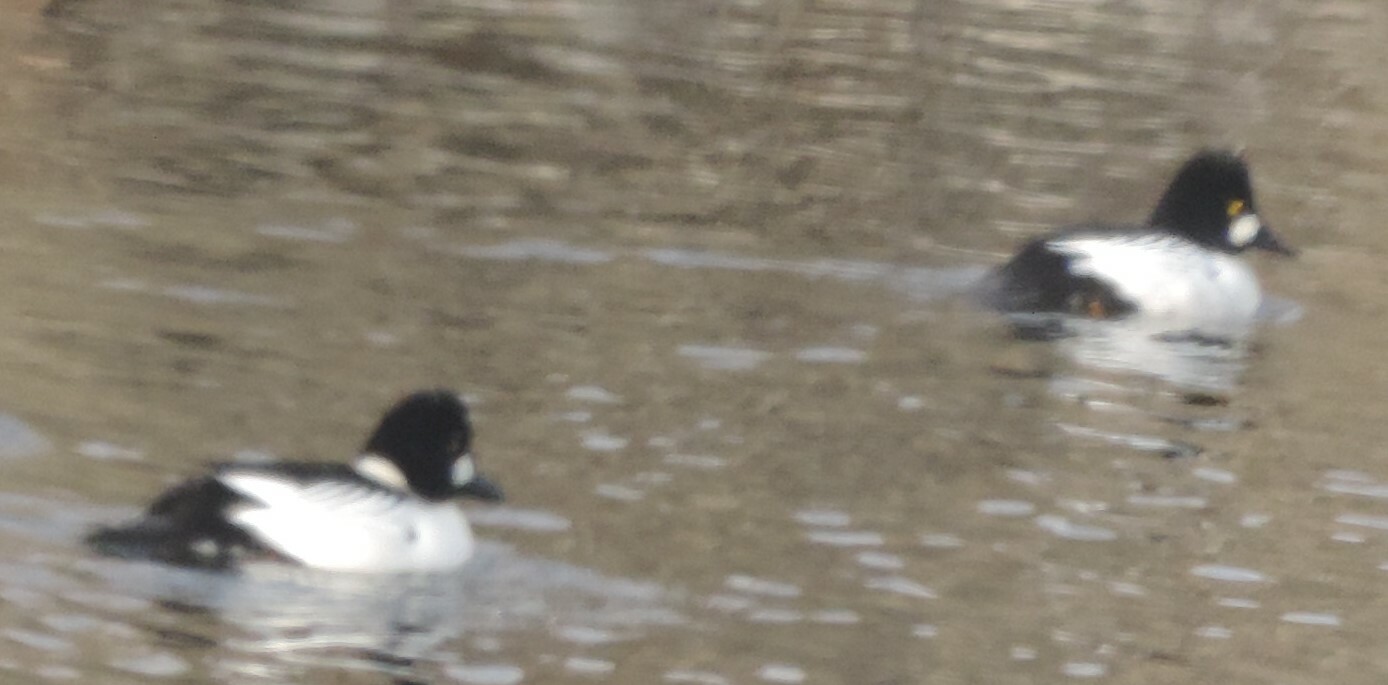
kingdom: Animalia
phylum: Chordata
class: Aves
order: Anseriformes
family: Anatidae
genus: Bucephala
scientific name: Bucephala clangula
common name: Common goldeneye
